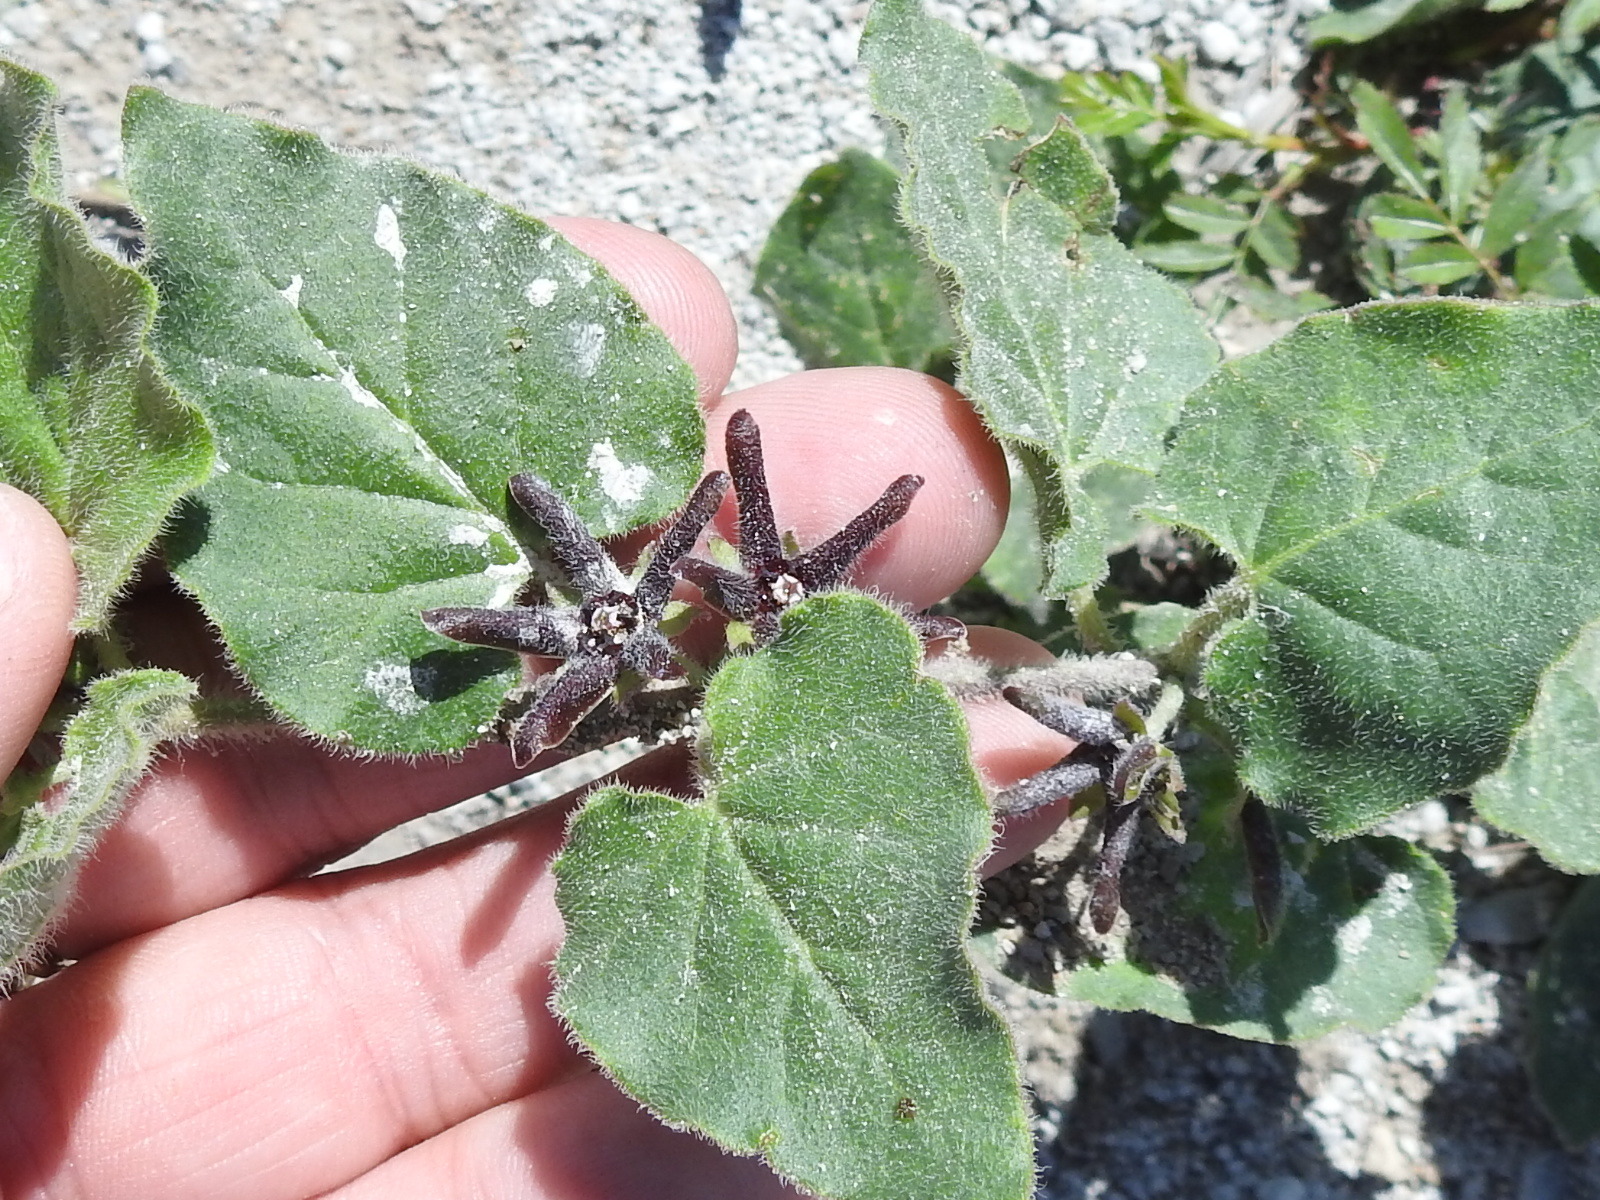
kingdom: Plantae
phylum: Tracheophyta
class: Magnoliopsida
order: Gentianales
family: Apocynaceae
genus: Chthamalia
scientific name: Chthamalia biflora
